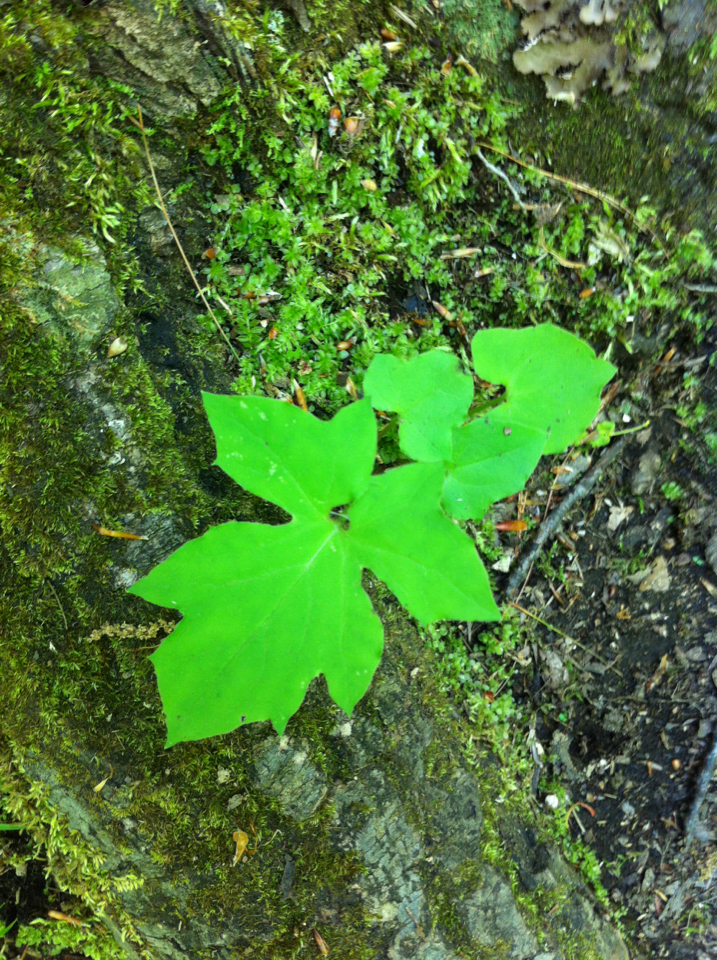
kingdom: Plantae
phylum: Tracheophyta
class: Magnoliopsida
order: Asterales
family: Asteraceae
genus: Nabalus
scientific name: Nabalus
